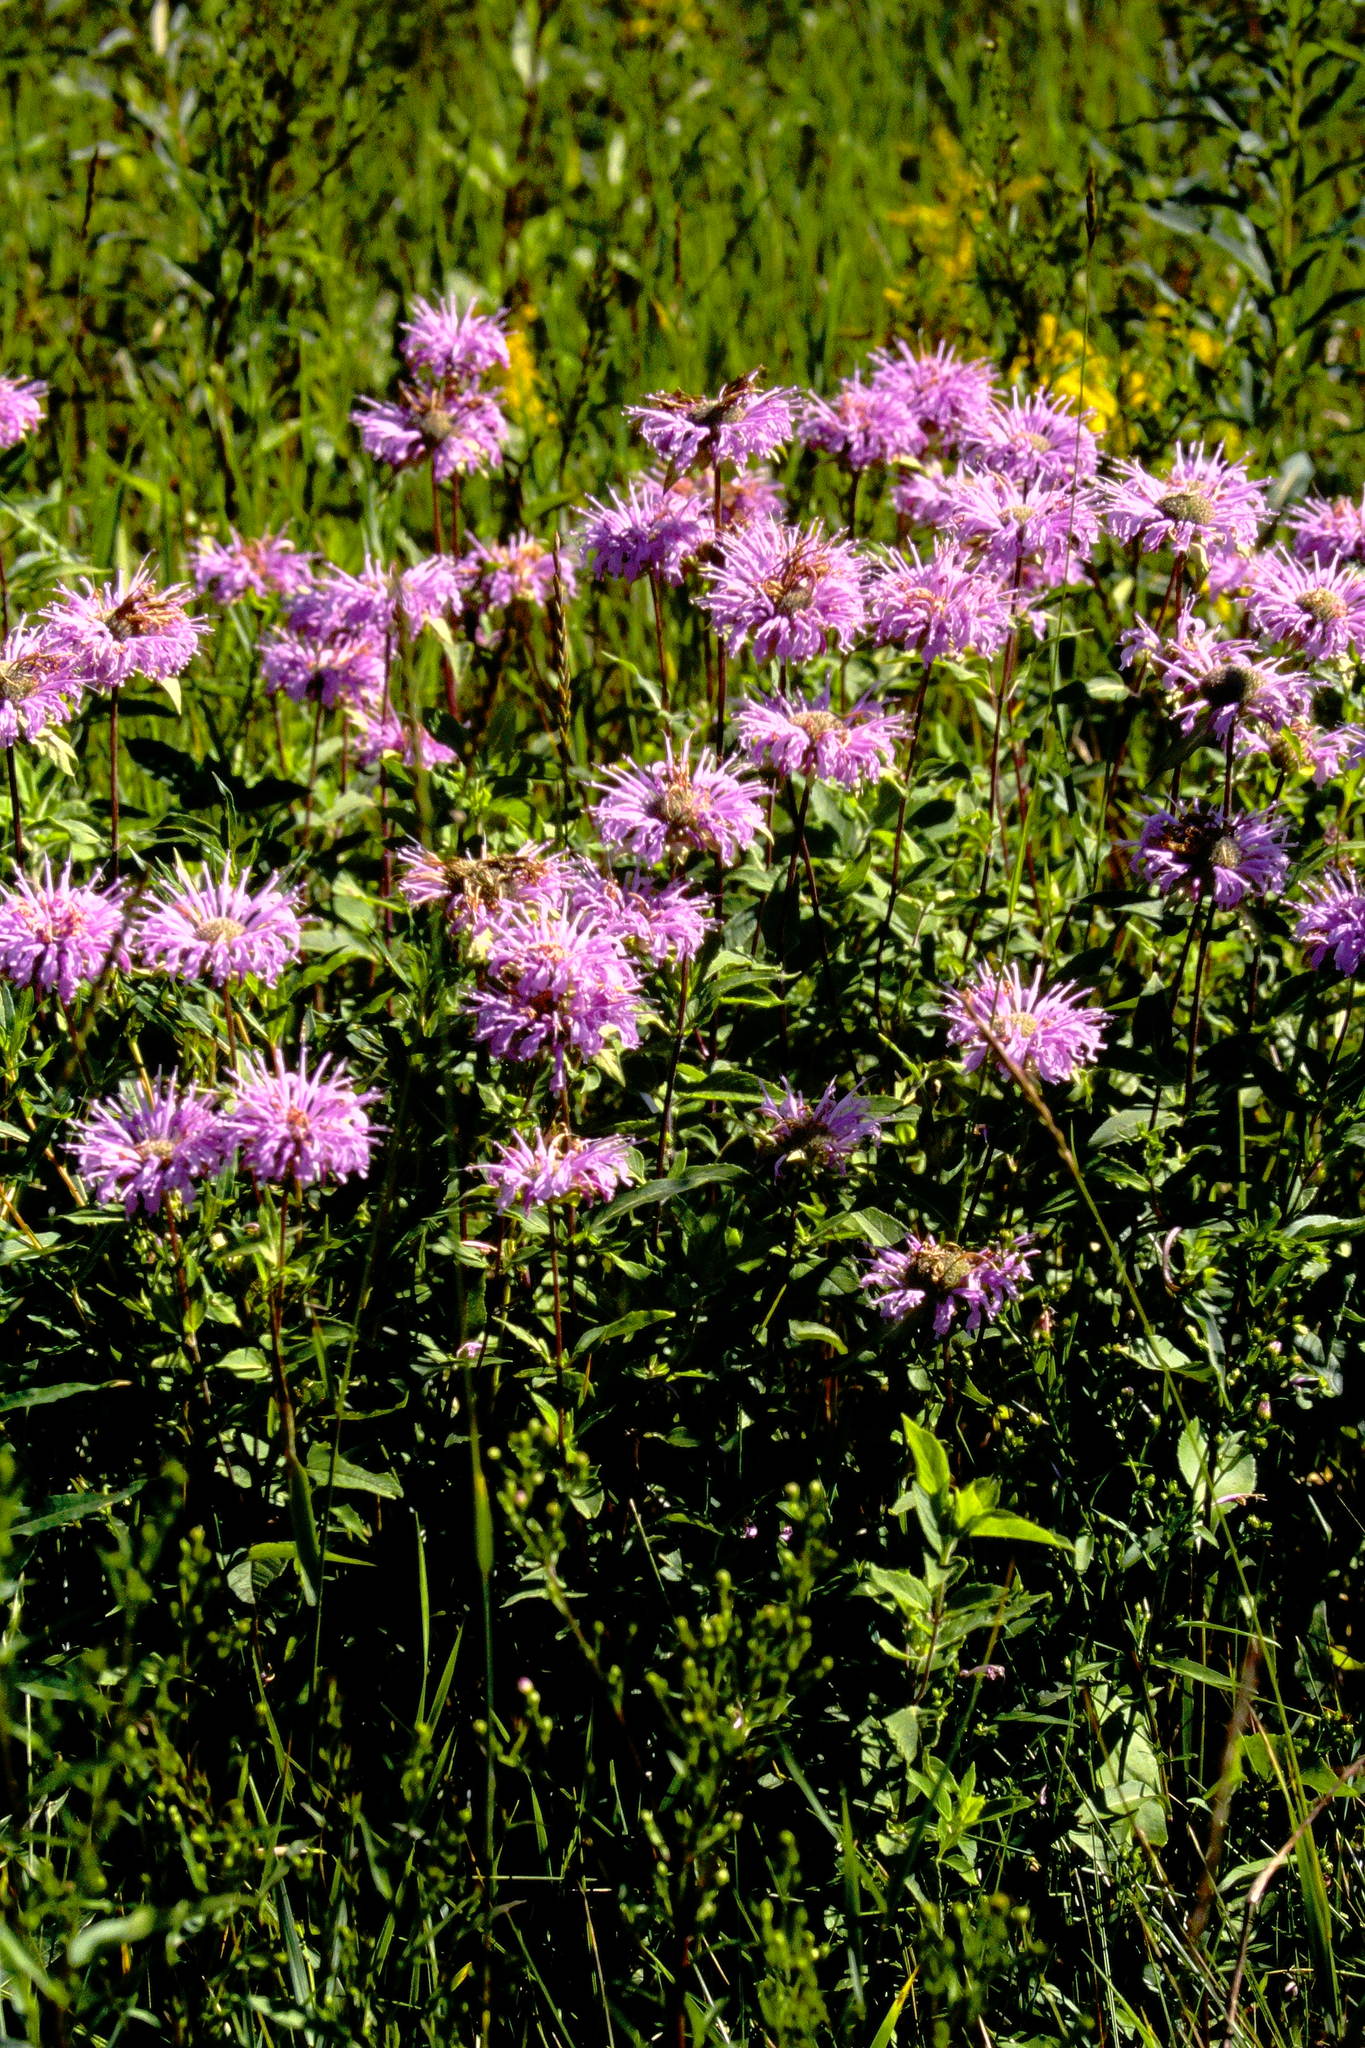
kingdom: Plantae
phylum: Tracheophyta
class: Magnoliopsida
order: Lamiales
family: Lamiaceae
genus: Monarda
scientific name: Monarda fistulosa
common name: Purple beebalm
